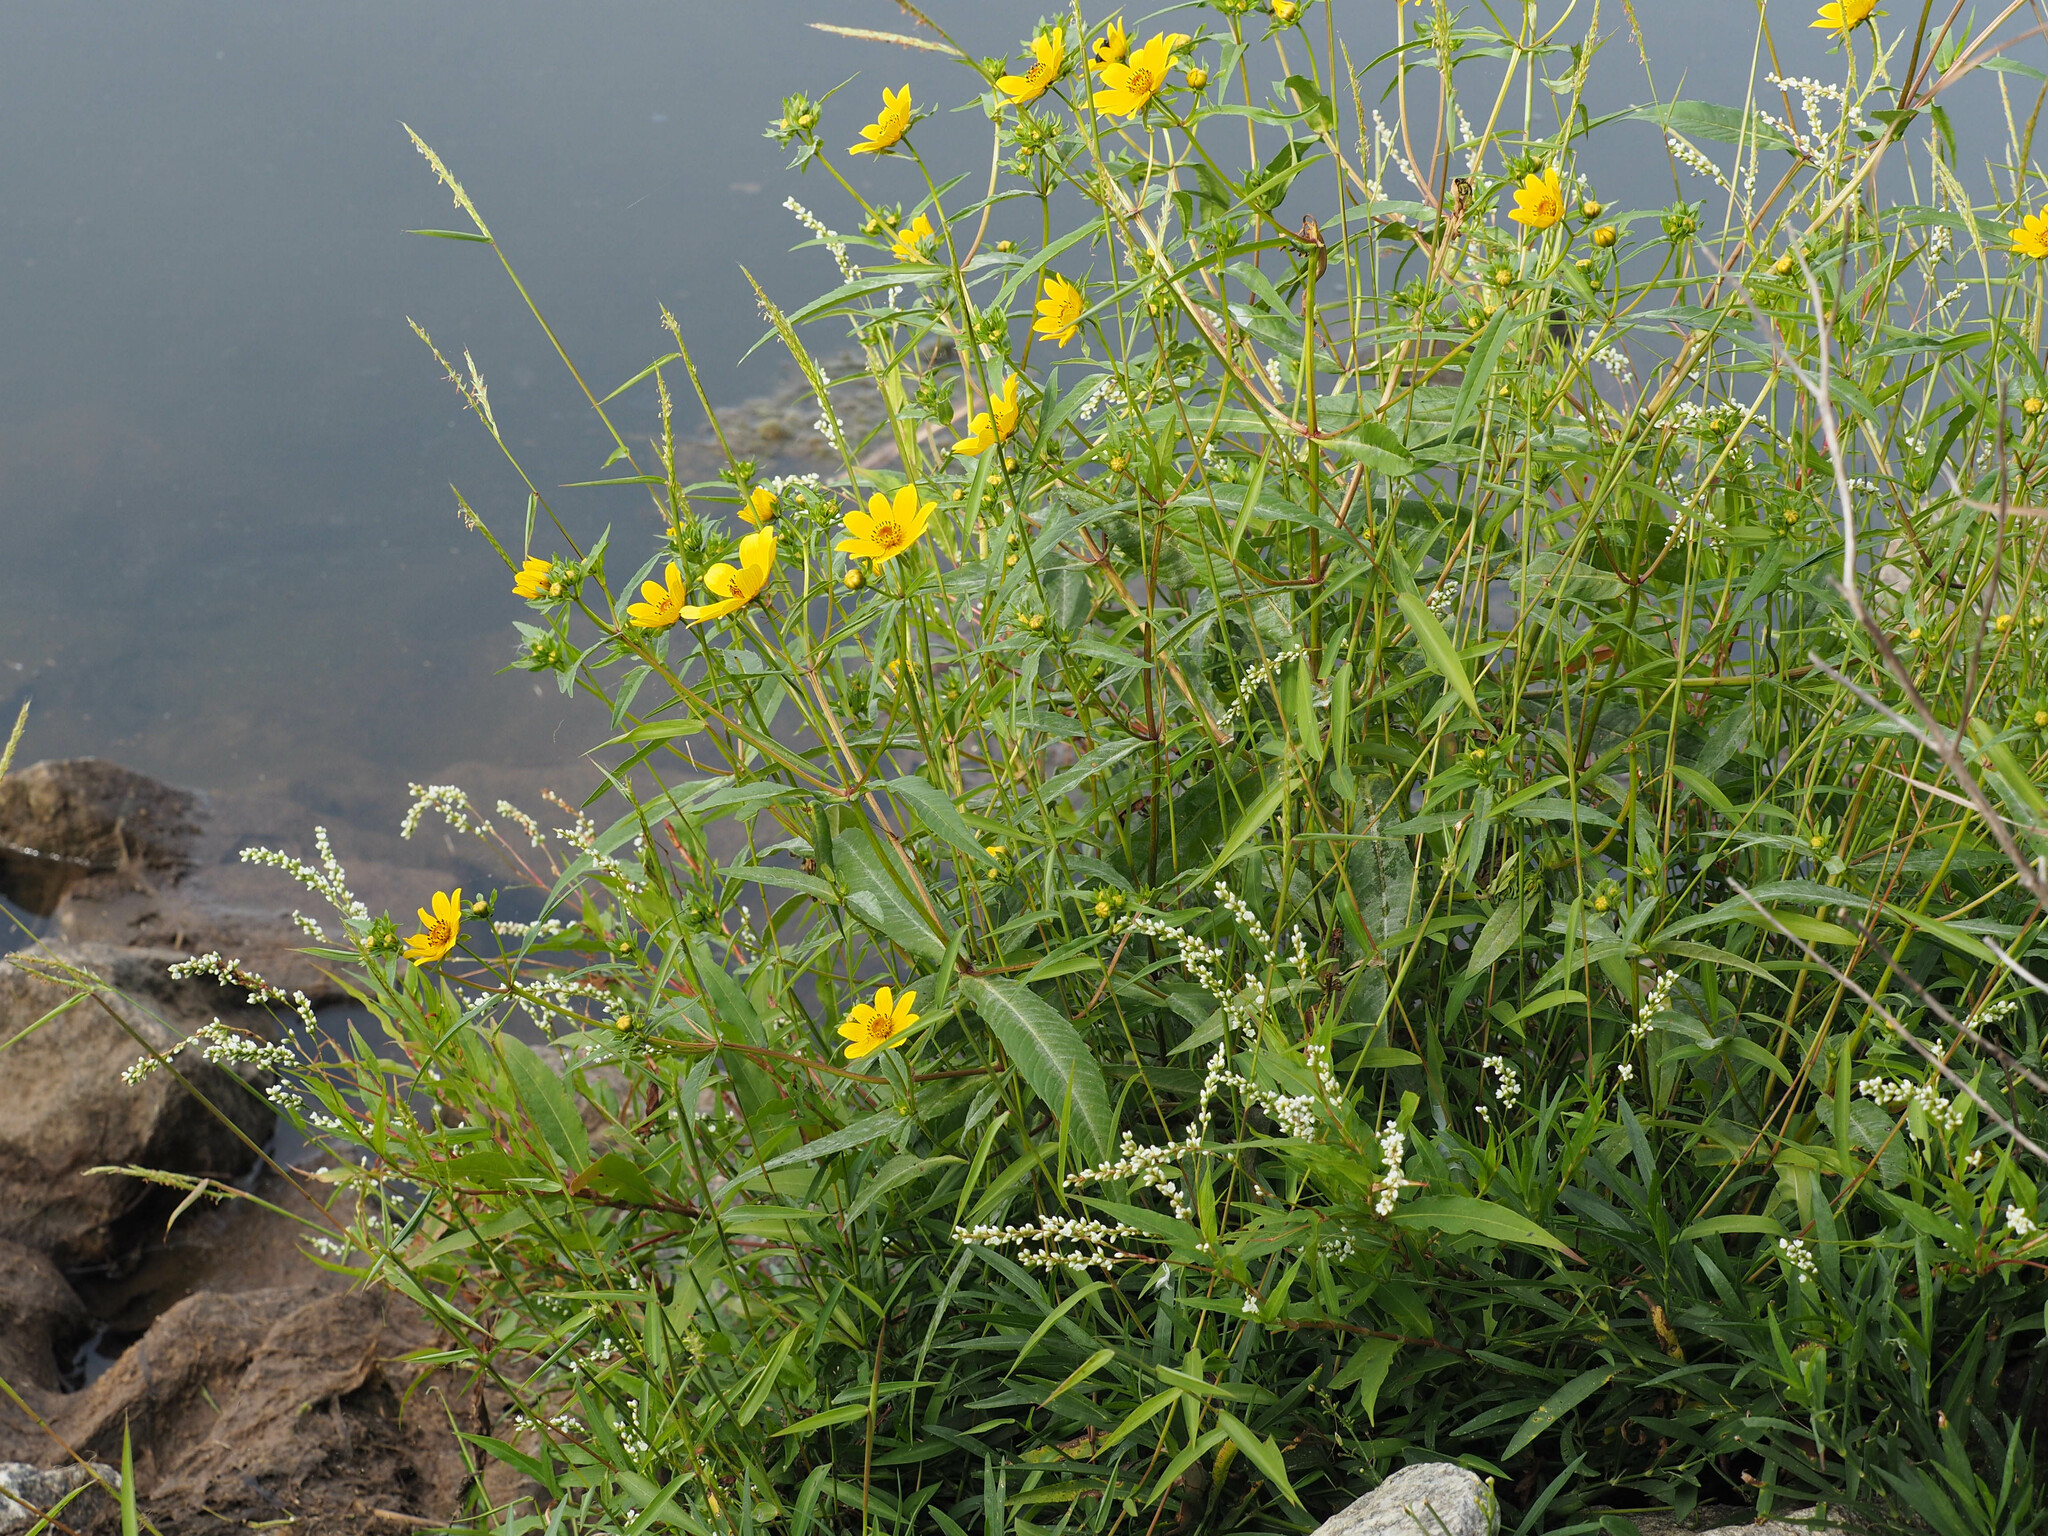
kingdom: Plantae
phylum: Tracheophyta
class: Magnoliopsida
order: Asterales
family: Asteraceae
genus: Bidens
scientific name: Bidens cernua
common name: Nodding bur-marigold
